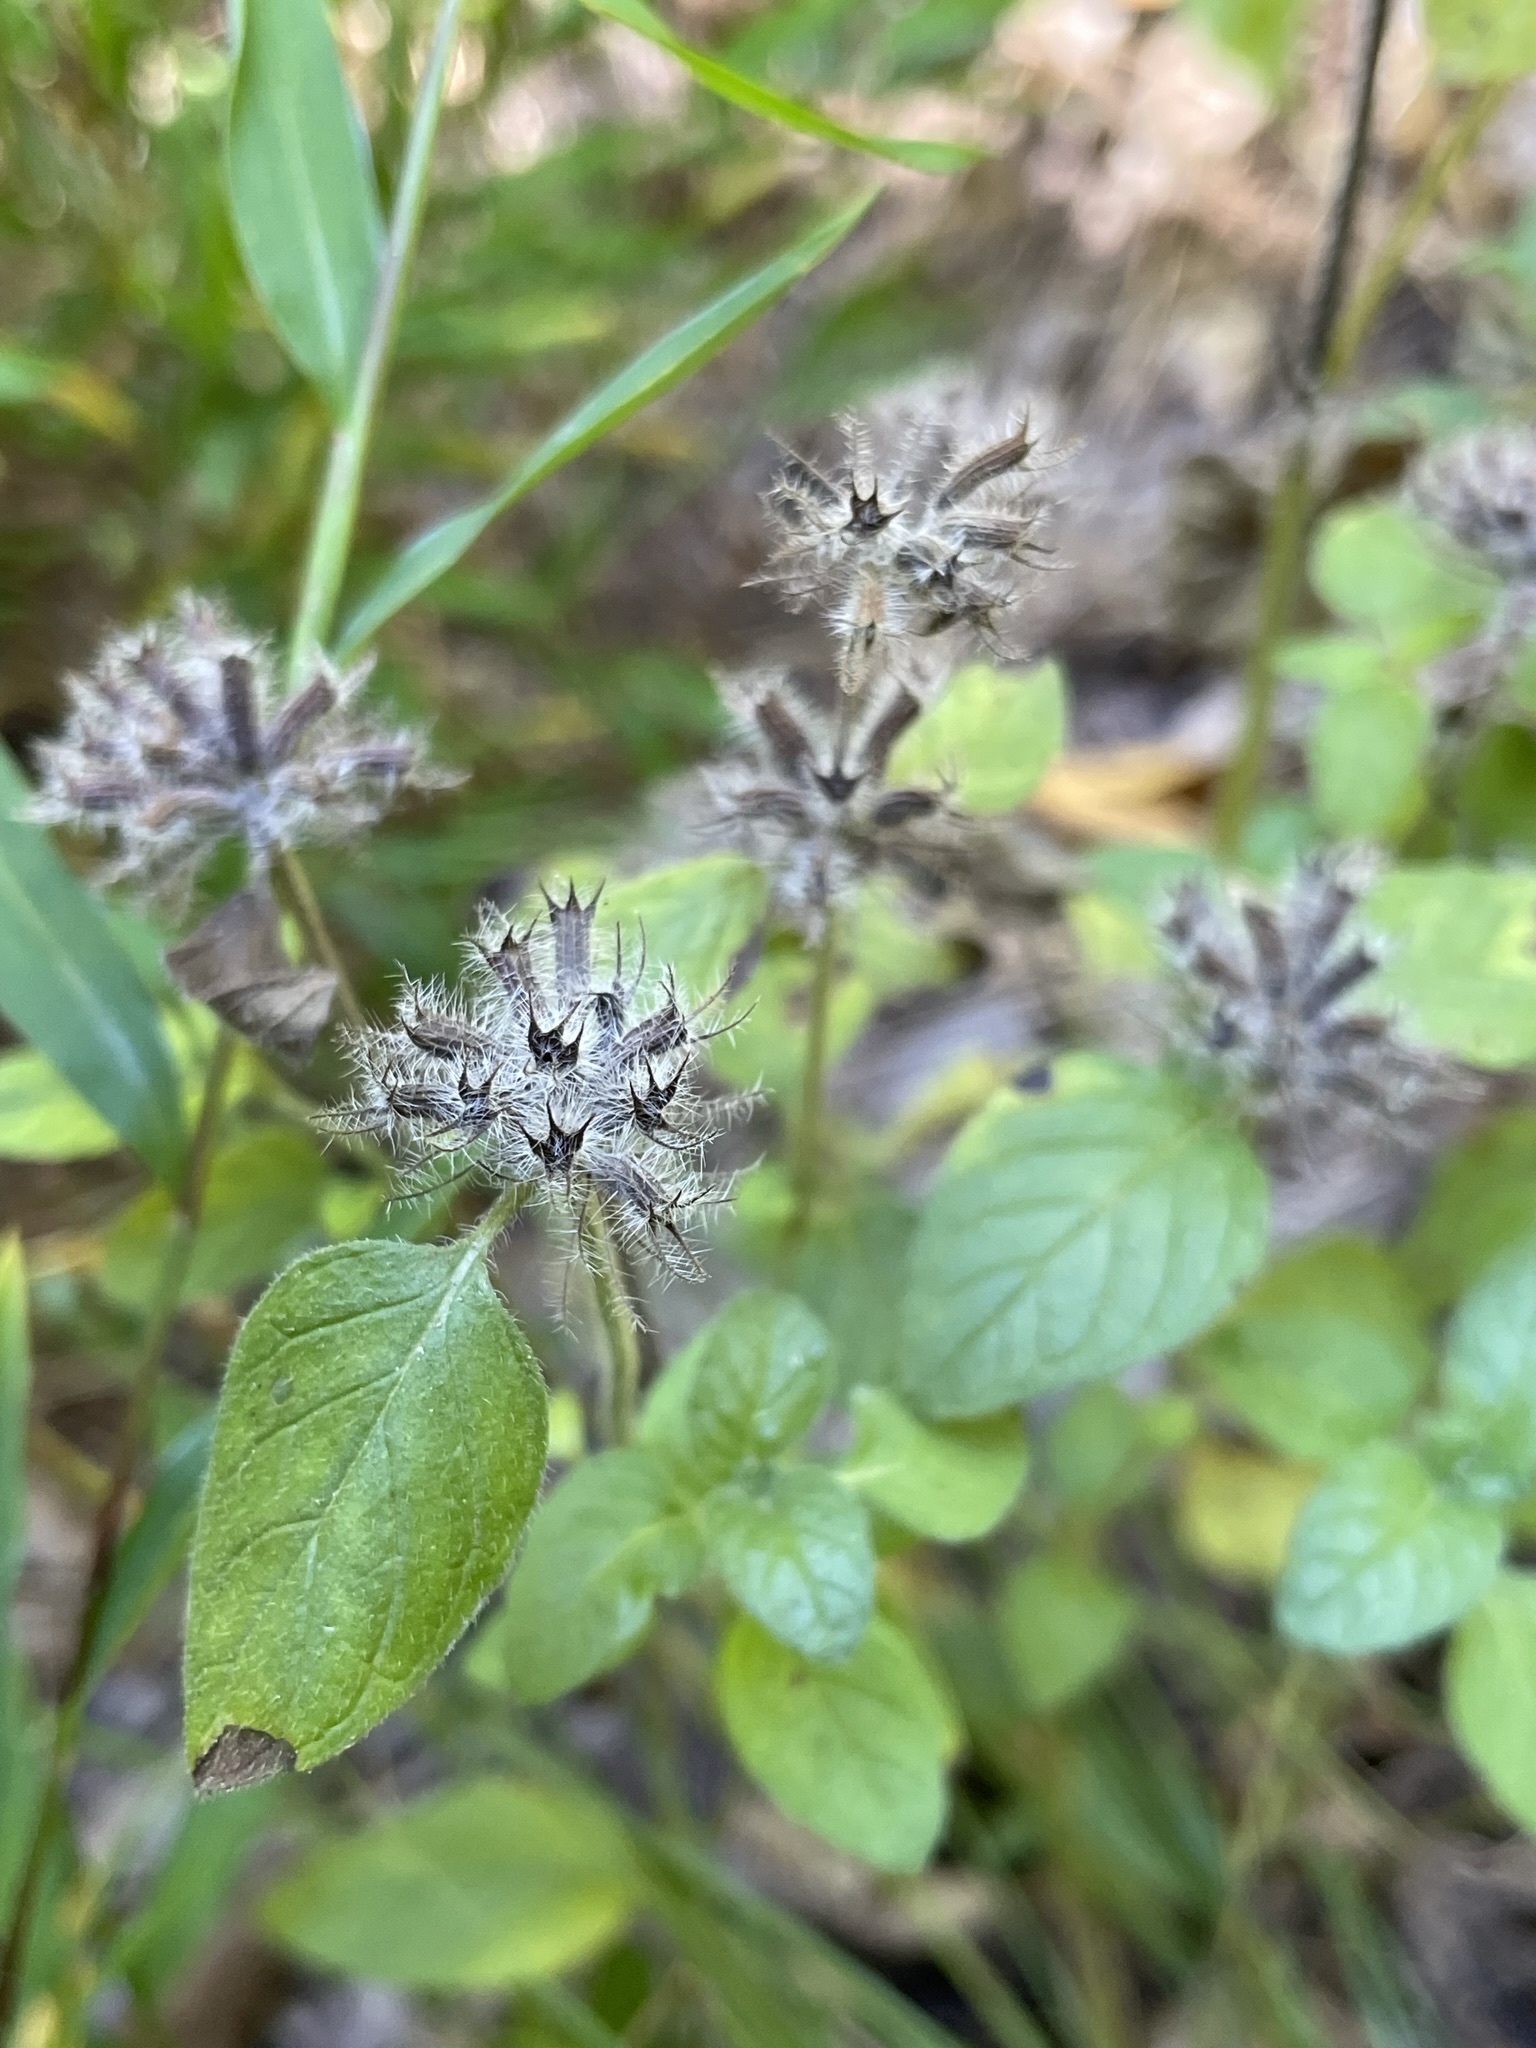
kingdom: Plantae
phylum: Tracheophyta
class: Magnoliopsida
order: Lamiales
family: Lamiaceae
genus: Clinopodium
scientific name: Clinopodium vulgare
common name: Wild basil
